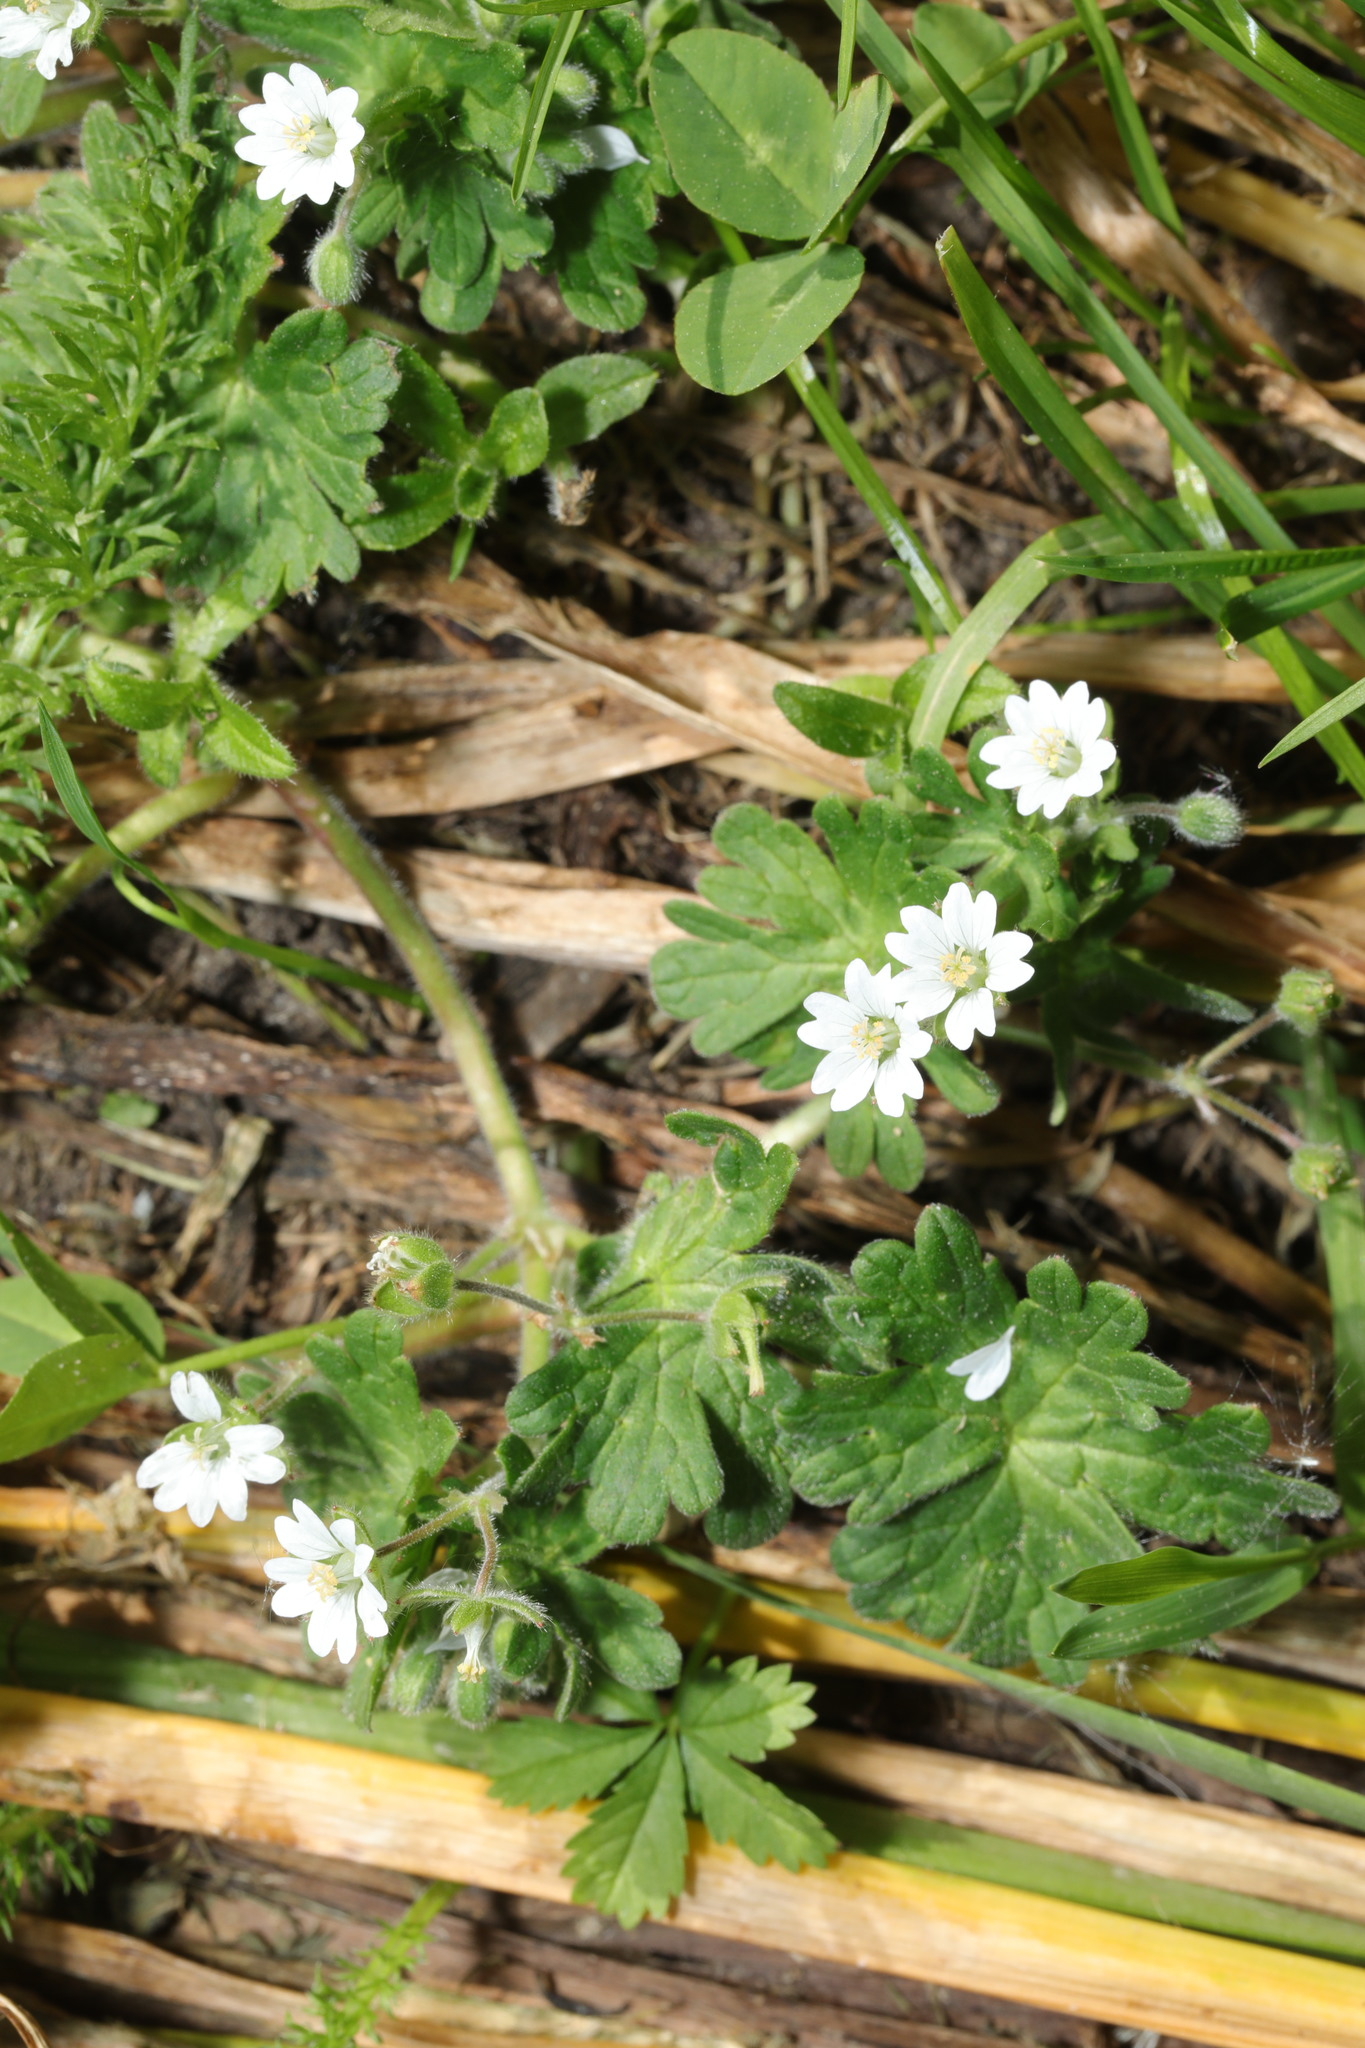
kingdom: Plantae
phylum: Tracheophyta
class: Magnoliopsida
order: Geraniales
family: Geraniaceae
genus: Geranium
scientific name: Geranium molle
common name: Dove's-foot crane's-bill
